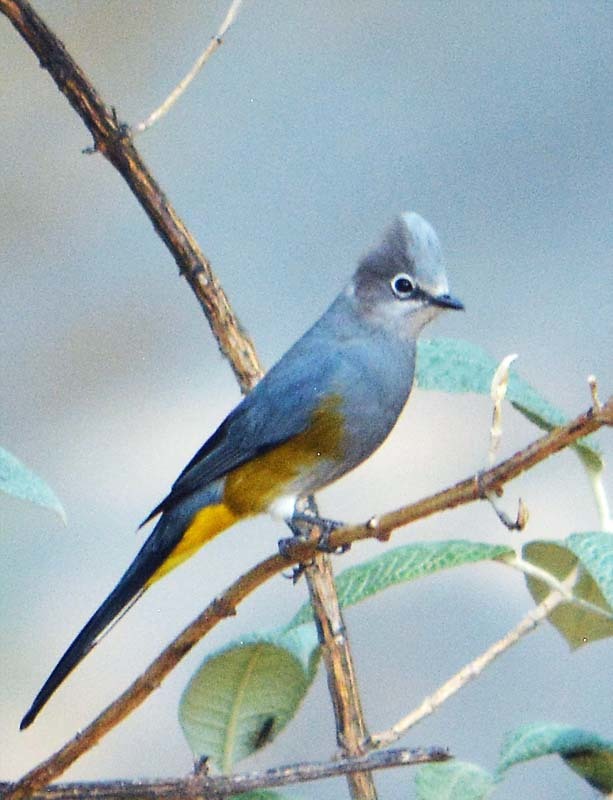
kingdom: Animalia
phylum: Chordata
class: Aves
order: Passeriformes
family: Ptilogonatidae
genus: Ptilogonys
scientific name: Ptilogonys cinereus
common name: Gray silky-flycatcher
